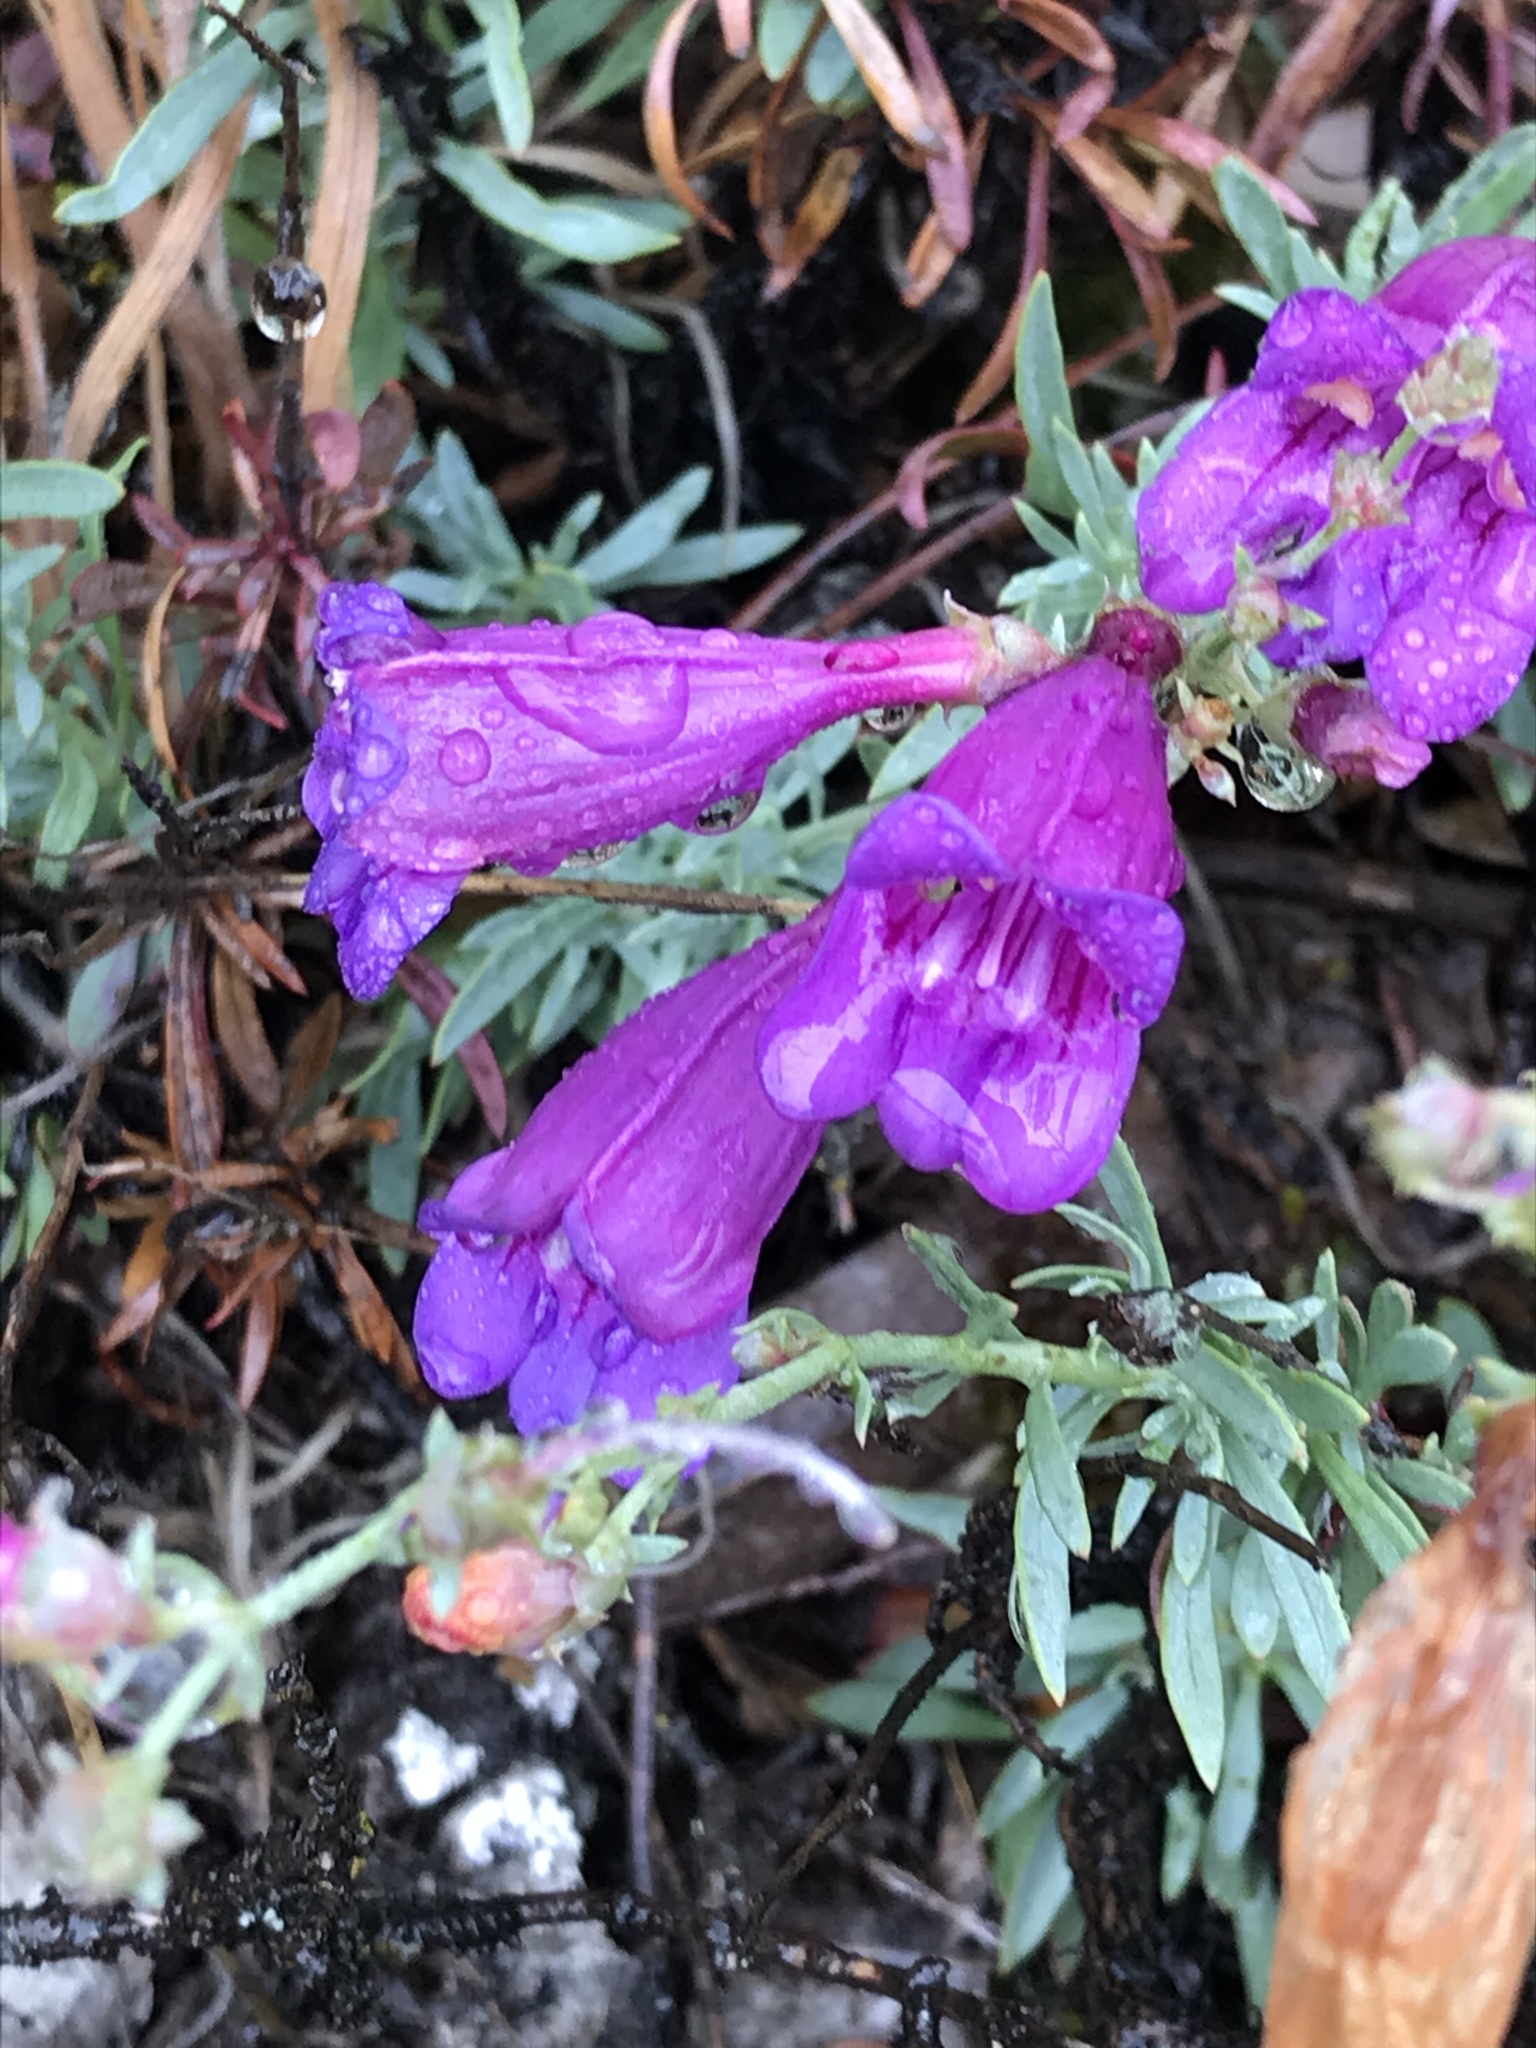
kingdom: Plantae
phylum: Tracheophyta
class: Magnoliopsida
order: Lamiales
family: Plantaginaceae
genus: Penstemon
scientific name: Penstemon heterophyllus
